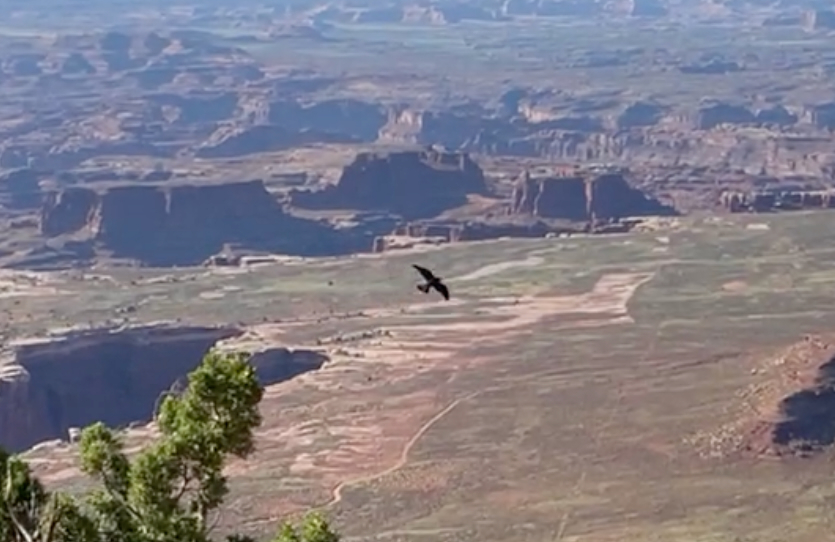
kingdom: Animalia
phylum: Chordata
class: Aves
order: Falconiformes
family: Falconidae
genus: Falco
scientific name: Falco peregrinus
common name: Peregrine falcon
